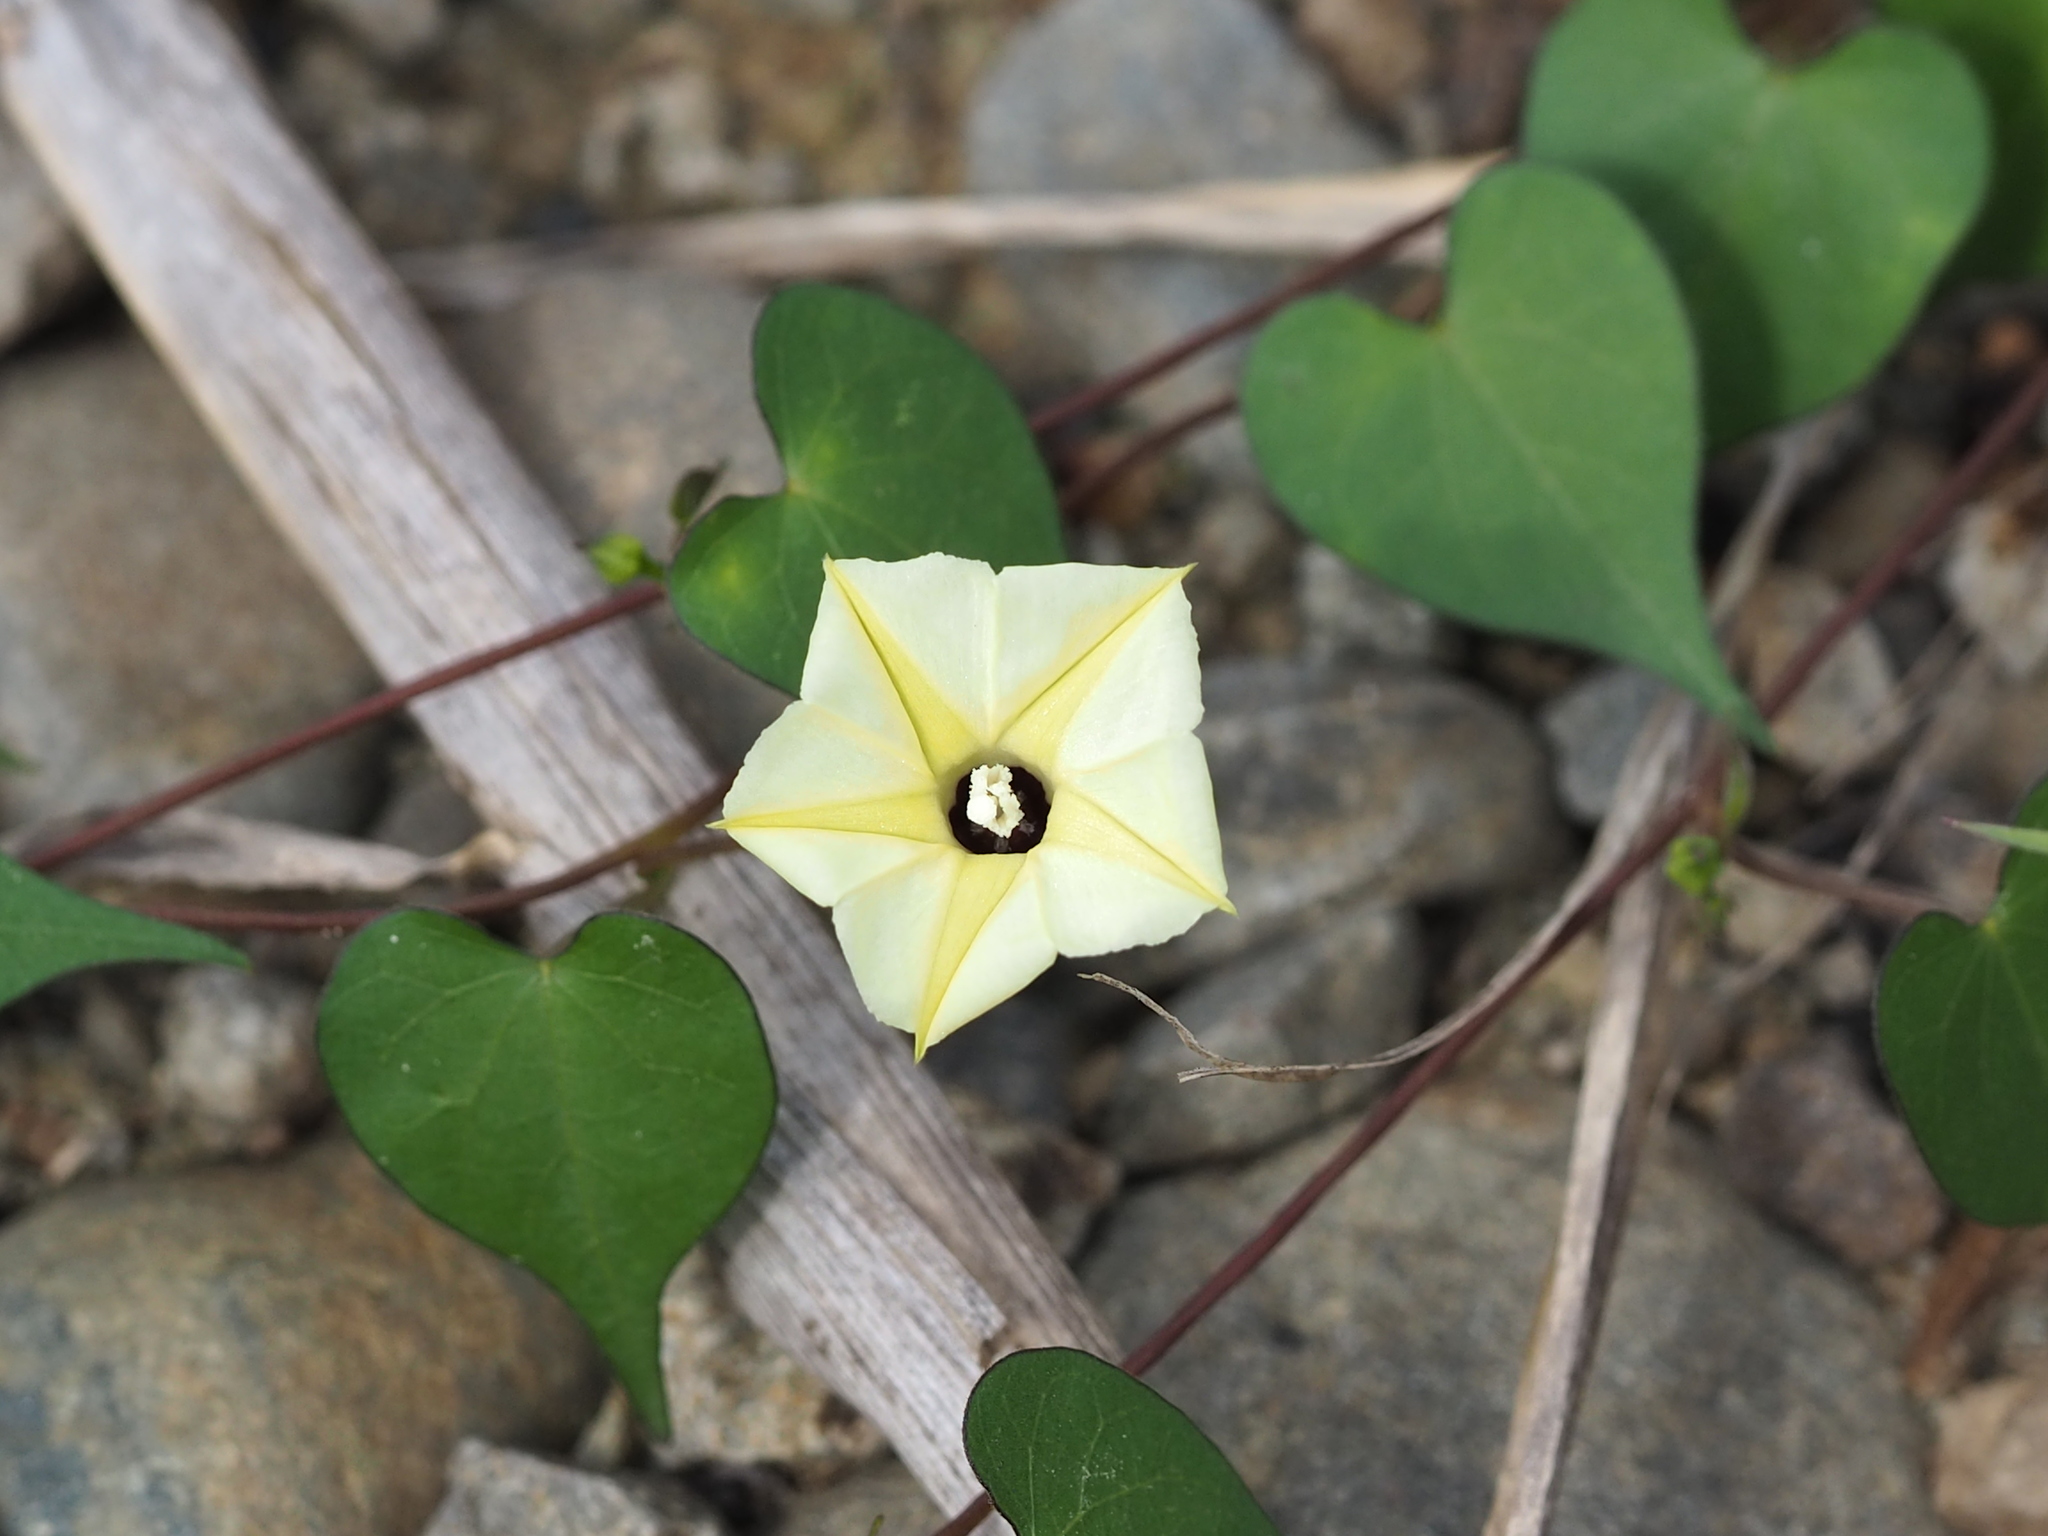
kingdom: Plantae
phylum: Tracheophyta
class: Magnoliopsida
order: Solanales
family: Convolvulaceae
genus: Ipomoea
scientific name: Ipomoea obscura
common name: Obscure morning-glory
